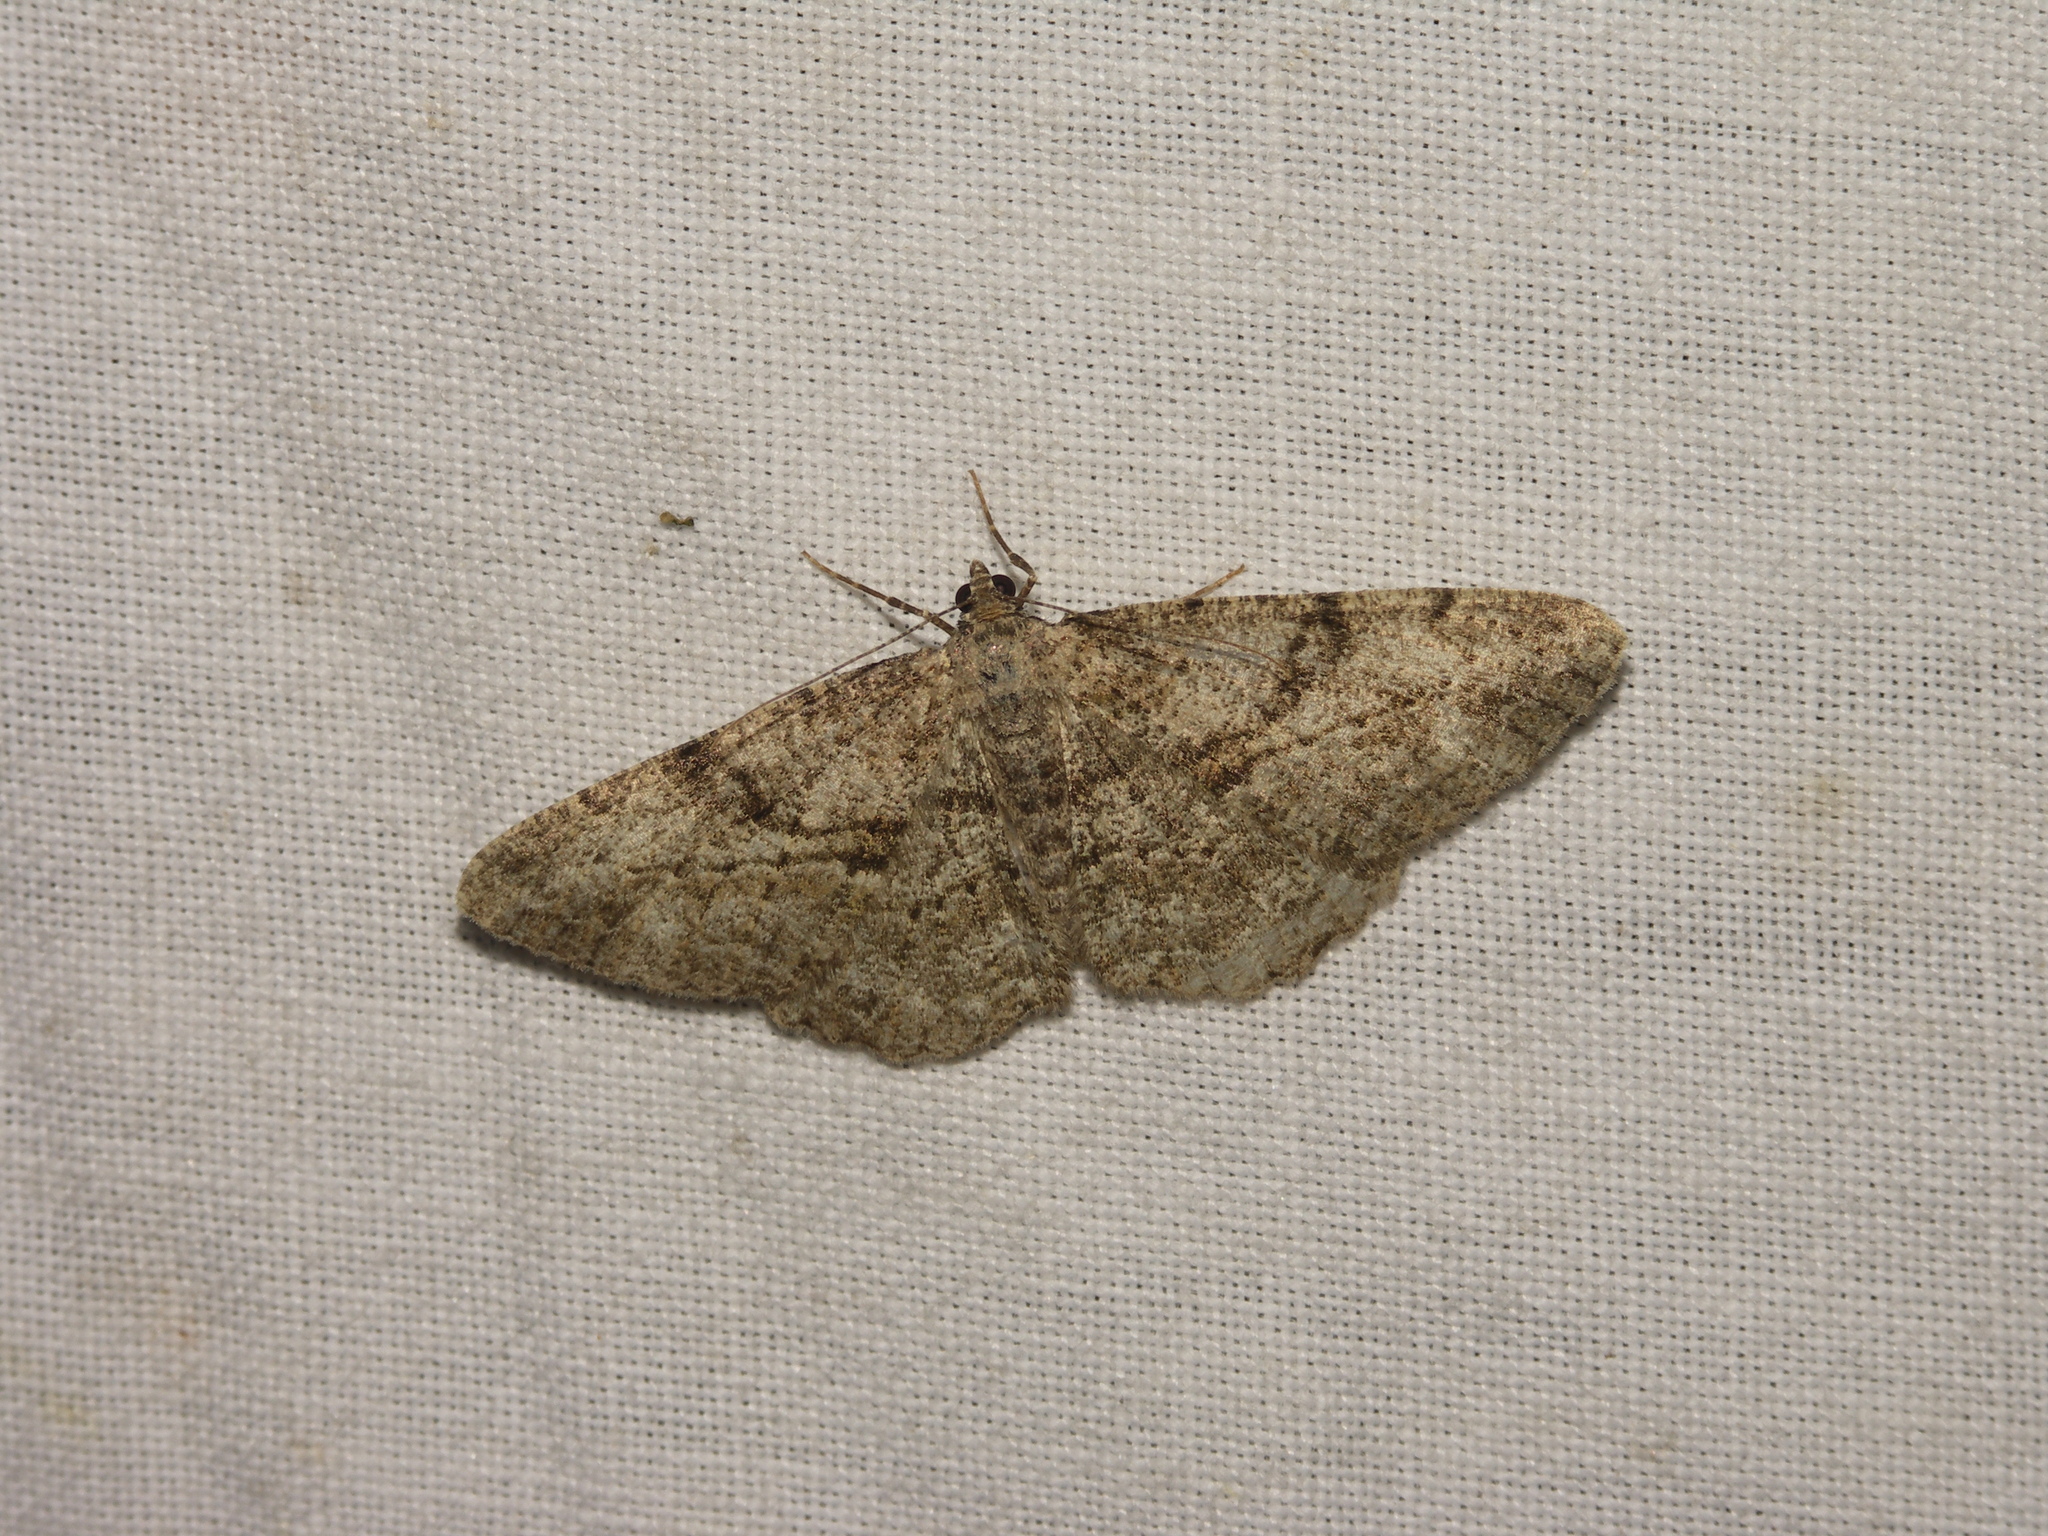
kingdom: Animalia
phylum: Arthropoda
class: Insecta
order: Lepidoptera
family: Geometridae
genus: Peribatodes
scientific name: Peribatodes rhomboidaria
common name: Willow beauty
